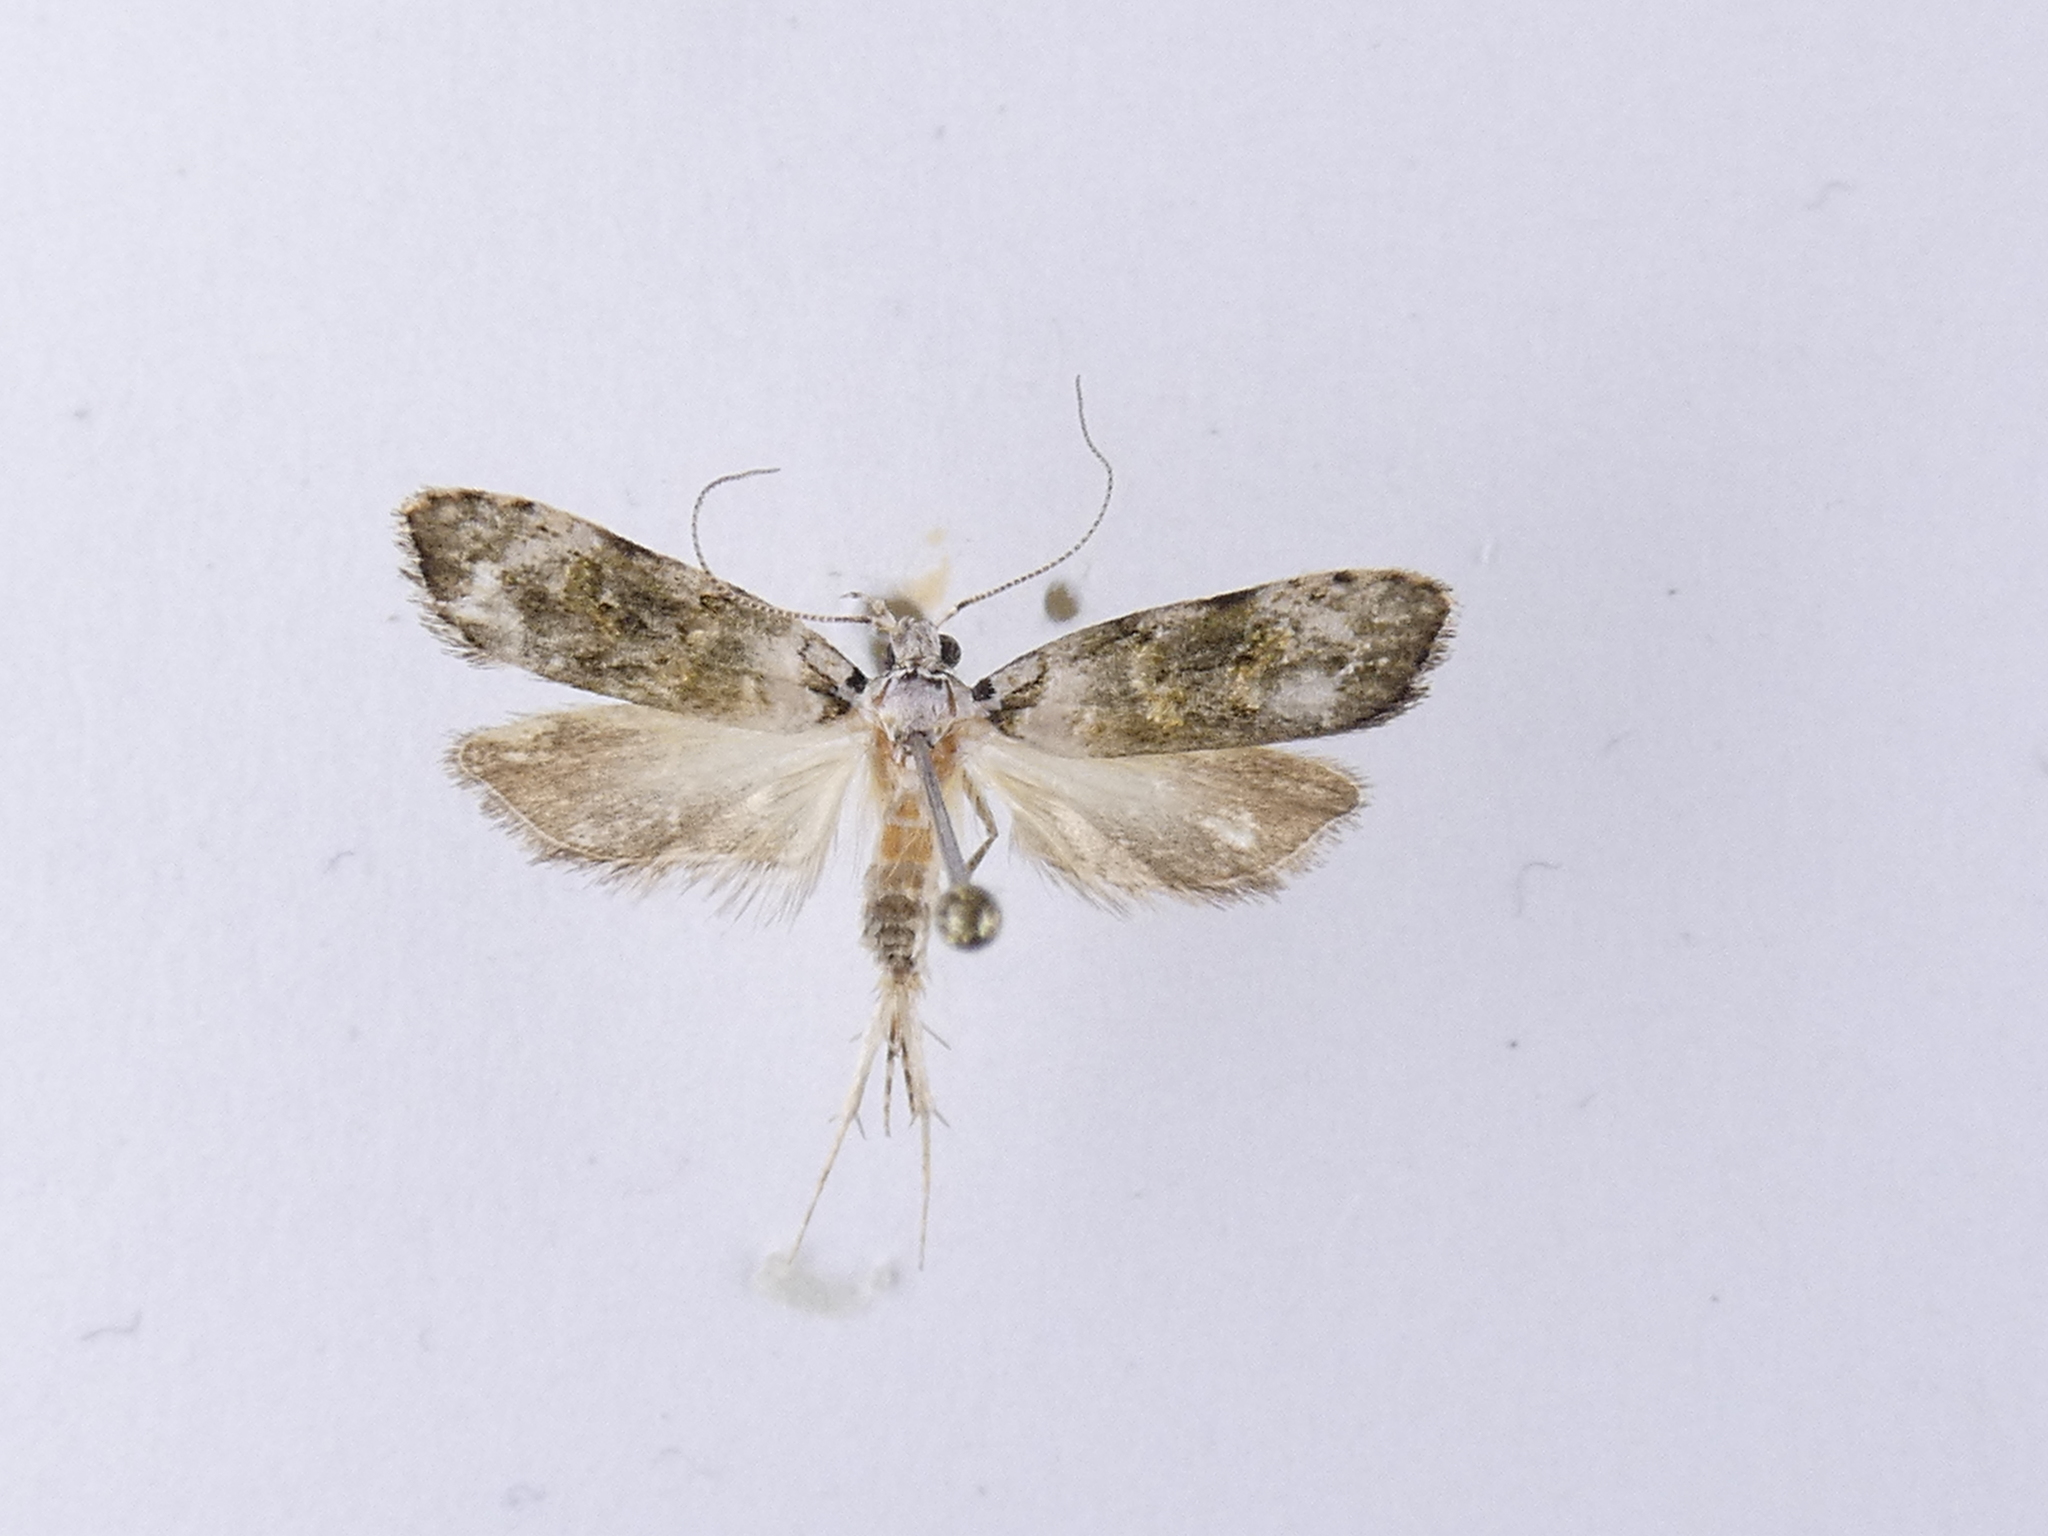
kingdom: Animalia
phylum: Arthropoda
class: Insecta
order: Lepidoptera
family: Oecophoridae
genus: Izatha
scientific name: Izatha prasophyta
